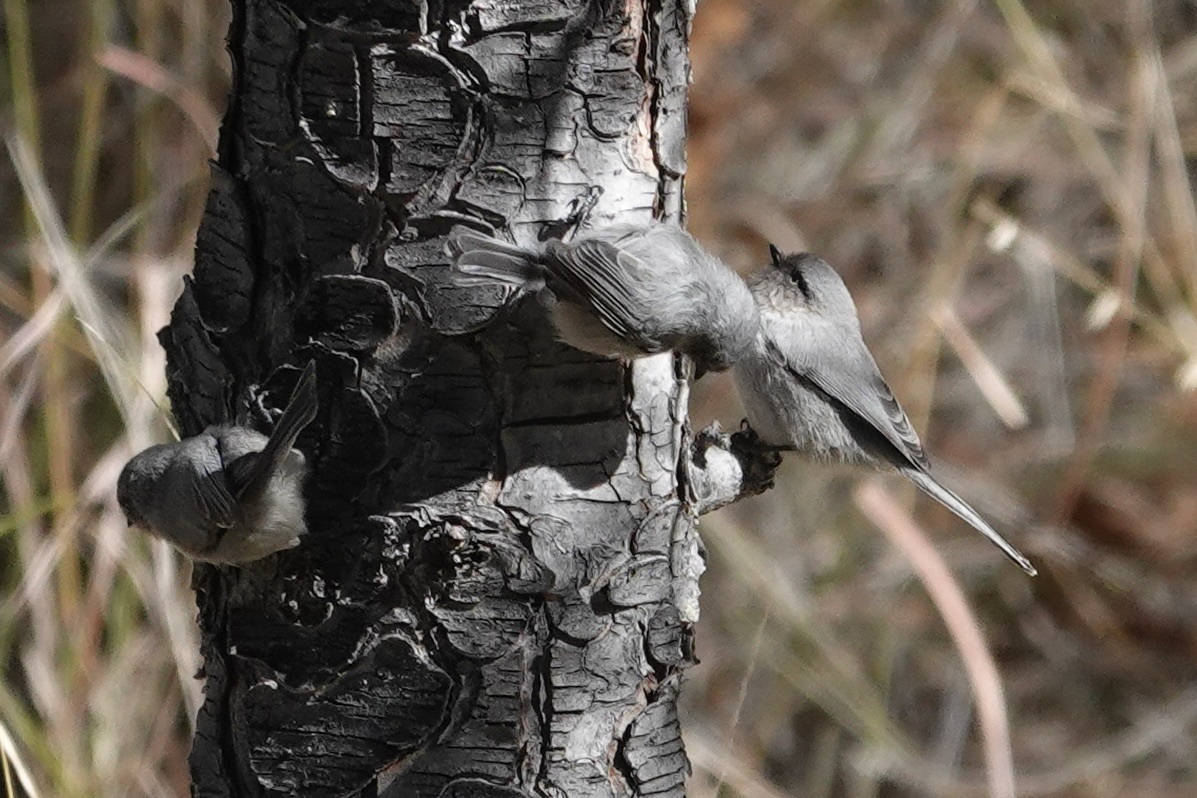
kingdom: Animalia
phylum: Chordata
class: Aves
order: Passeriformes
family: Aegithalidae
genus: Psaltriparus
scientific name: Psaltriparus minimus
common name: American bushtit
